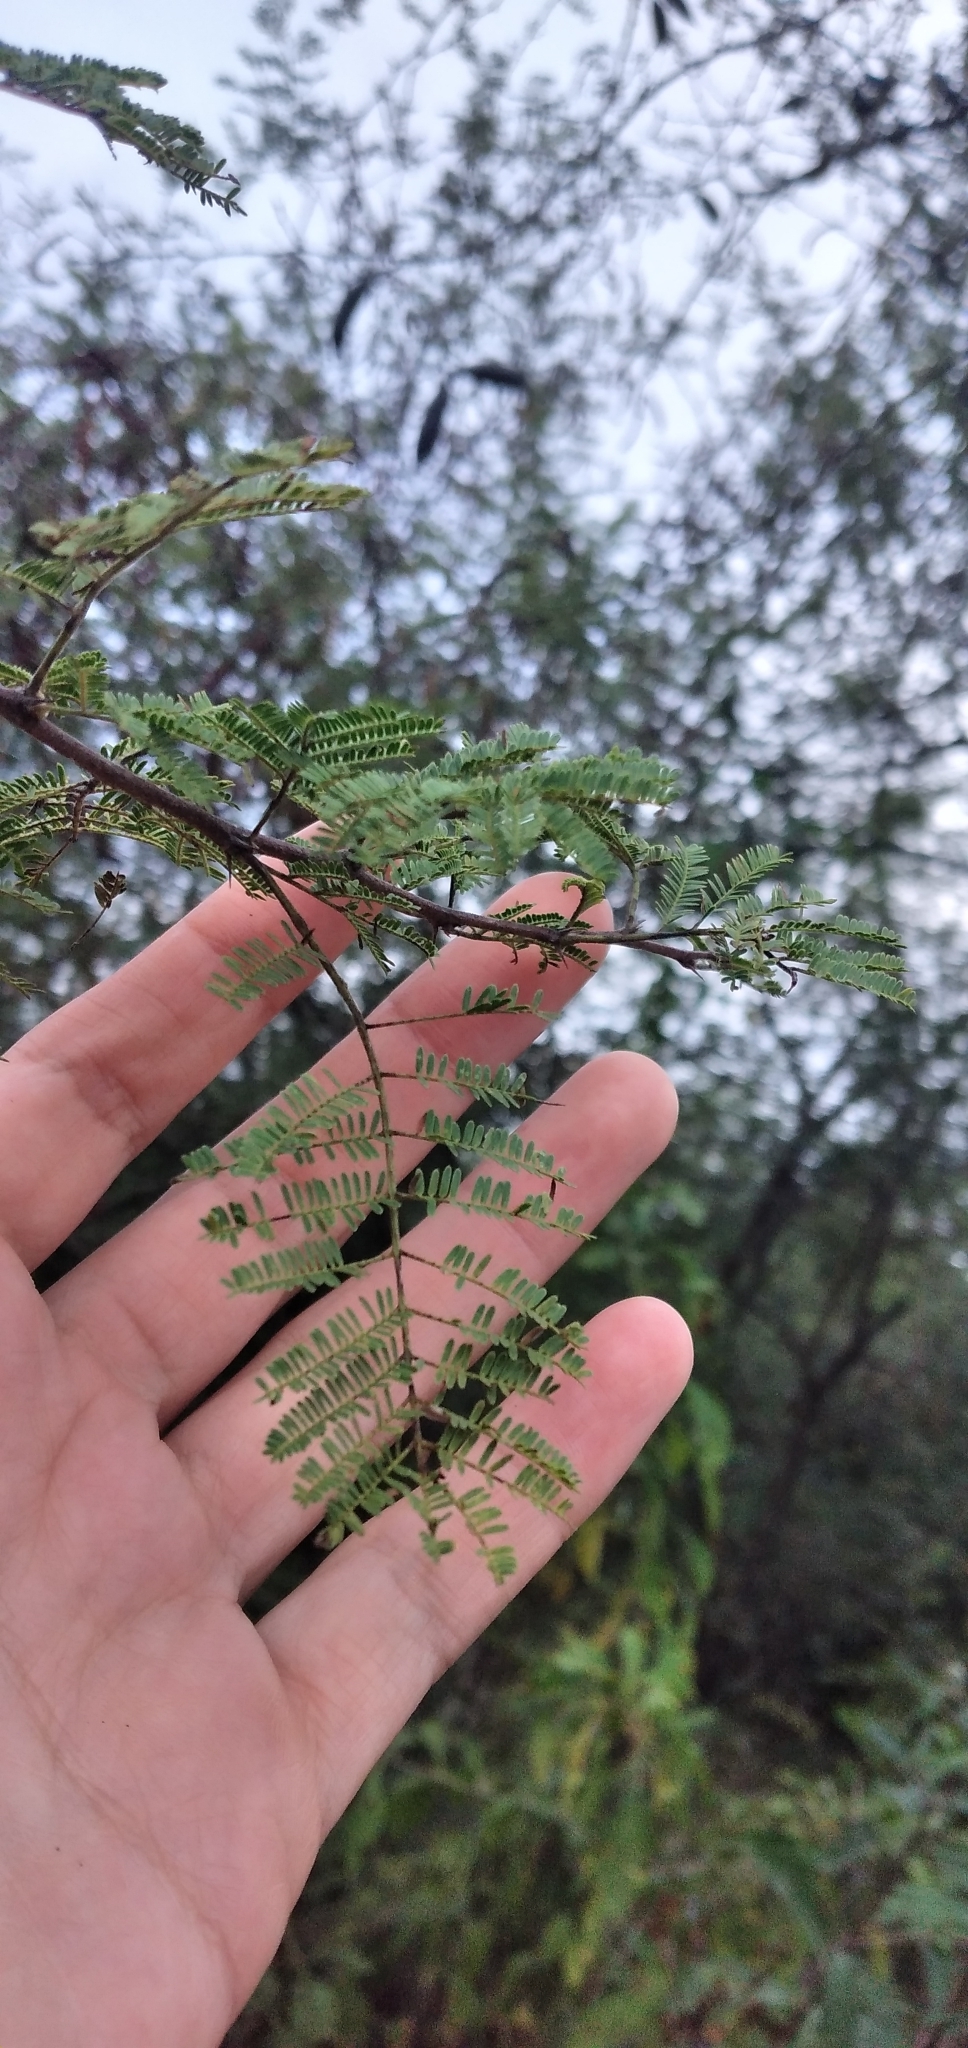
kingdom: Plantae
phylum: Tracheophyta
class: Magnoliopsida
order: Fabales
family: Fabaceae
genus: Vachellia
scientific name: Vachellia caven
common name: Roman cassie
